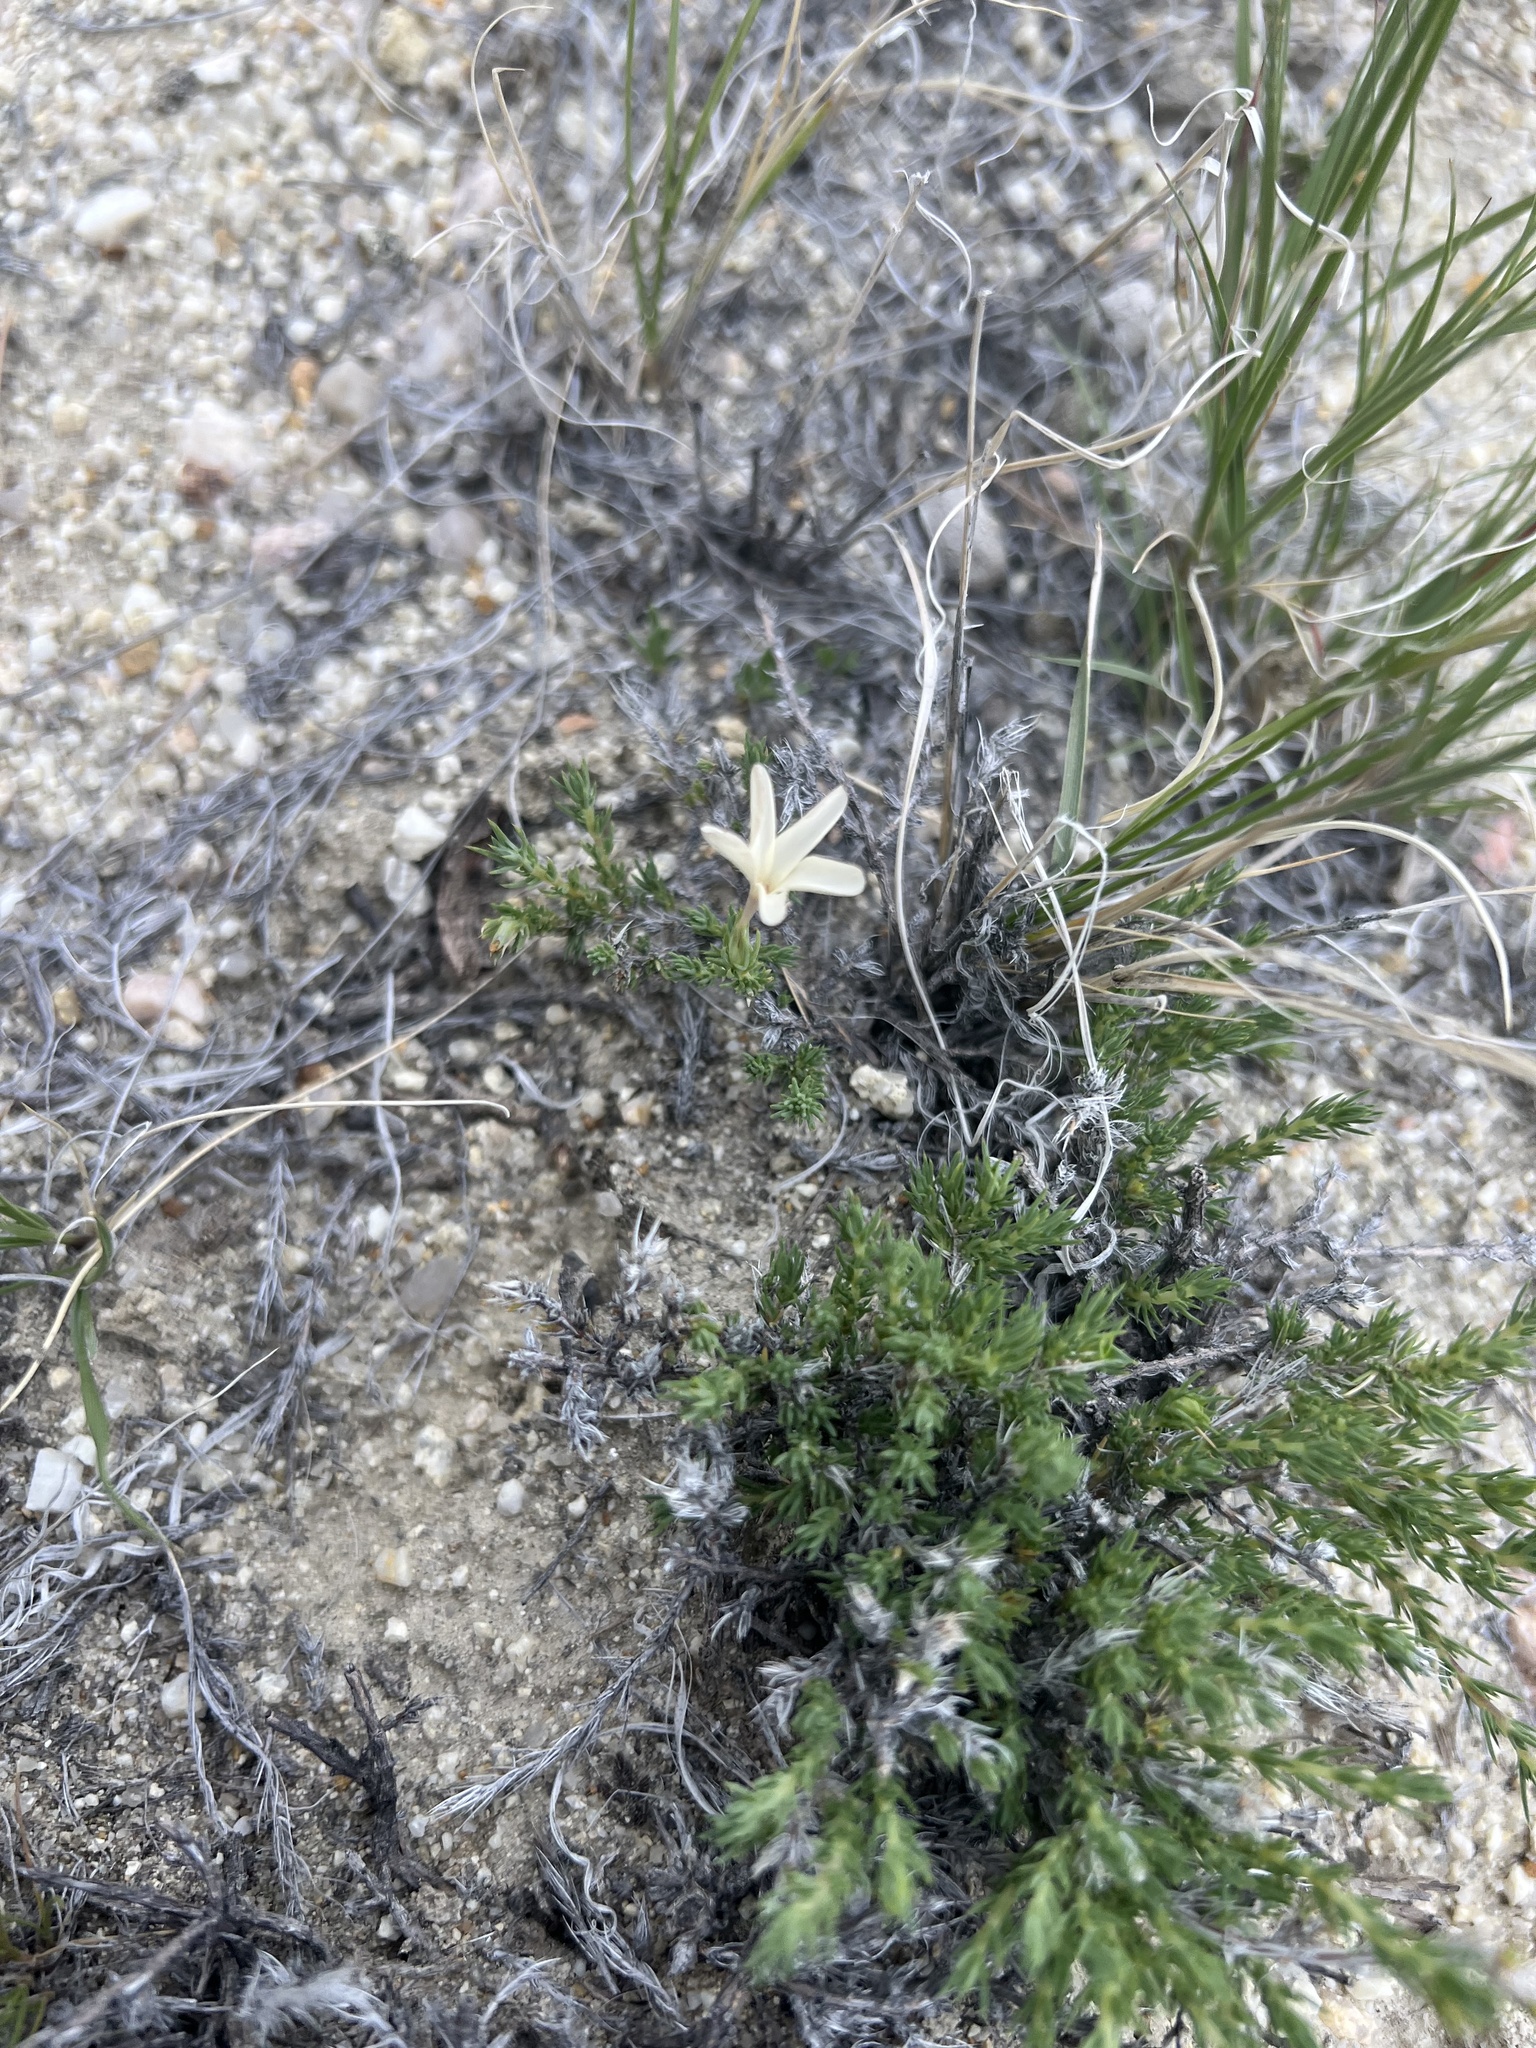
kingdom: Plantae
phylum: Tracheophyta
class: Magnoliopsida
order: Ericales
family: Polemoniaceae
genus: Linanthus
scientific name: Linanthus pungens
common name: Granite prickly phlox
